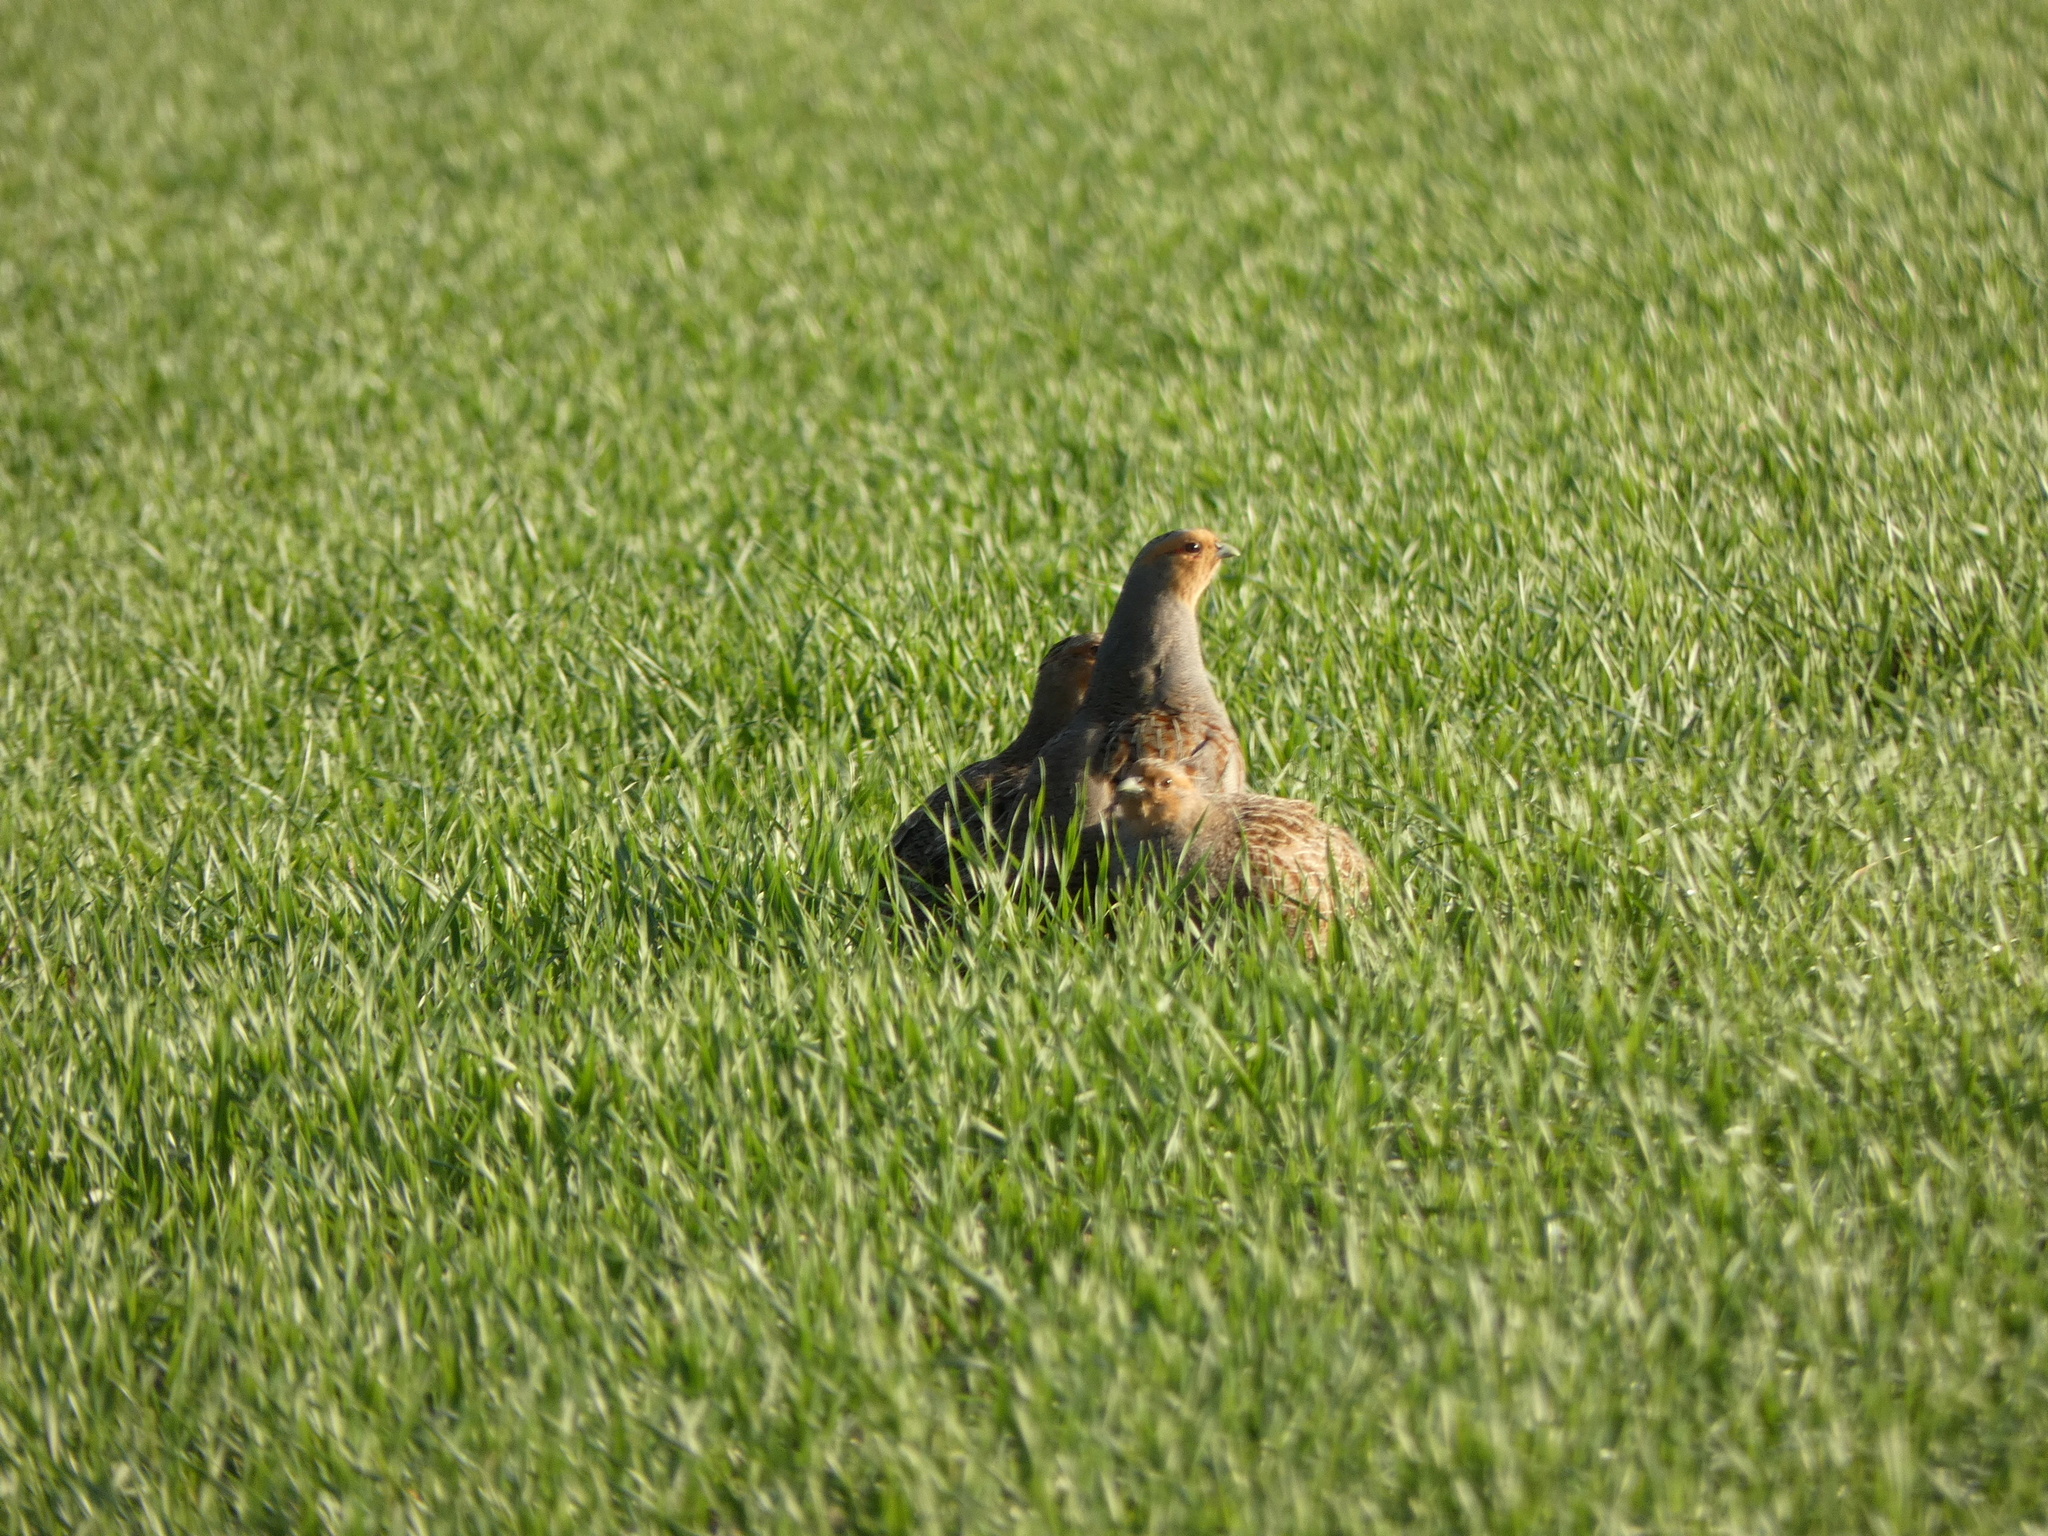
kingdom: Animalia
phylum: Chordata
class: Aves
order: Galliformes
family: Phasianidae
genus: Perdix
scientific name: Perdix perdix
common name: Grey partridge
